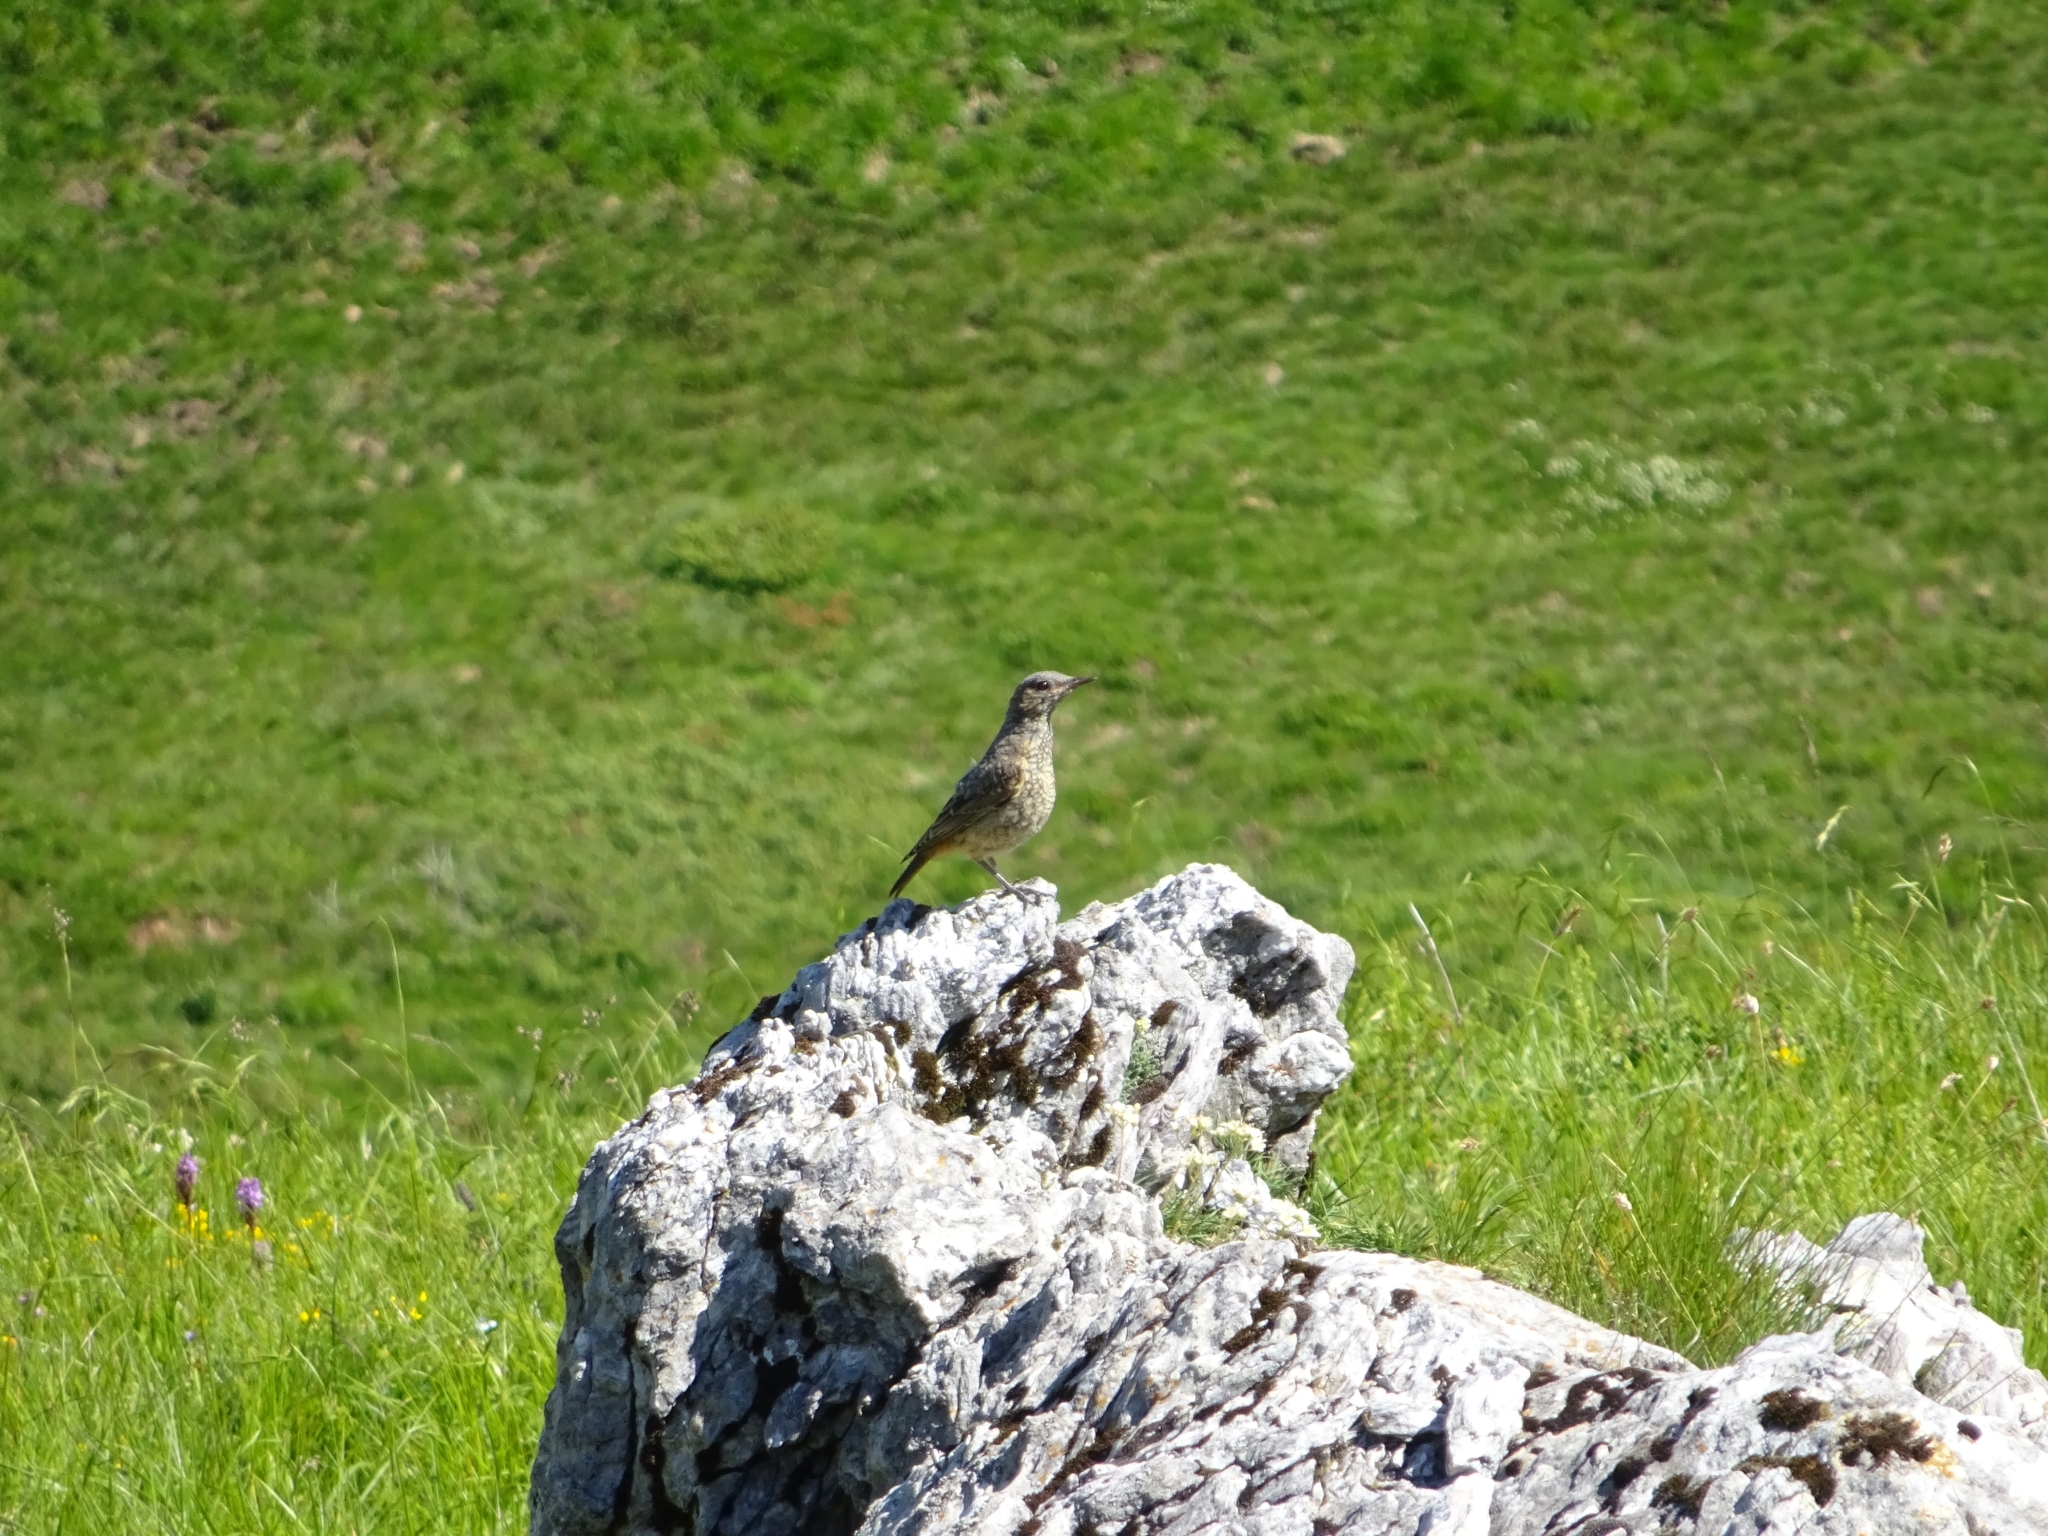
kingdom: Animalia
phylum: Chordata
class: Aves
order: Passeriformes
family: Muscicapidae
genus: Monticola
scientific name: Monticola saxatilis
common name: Rufous-tailed rock thrush
